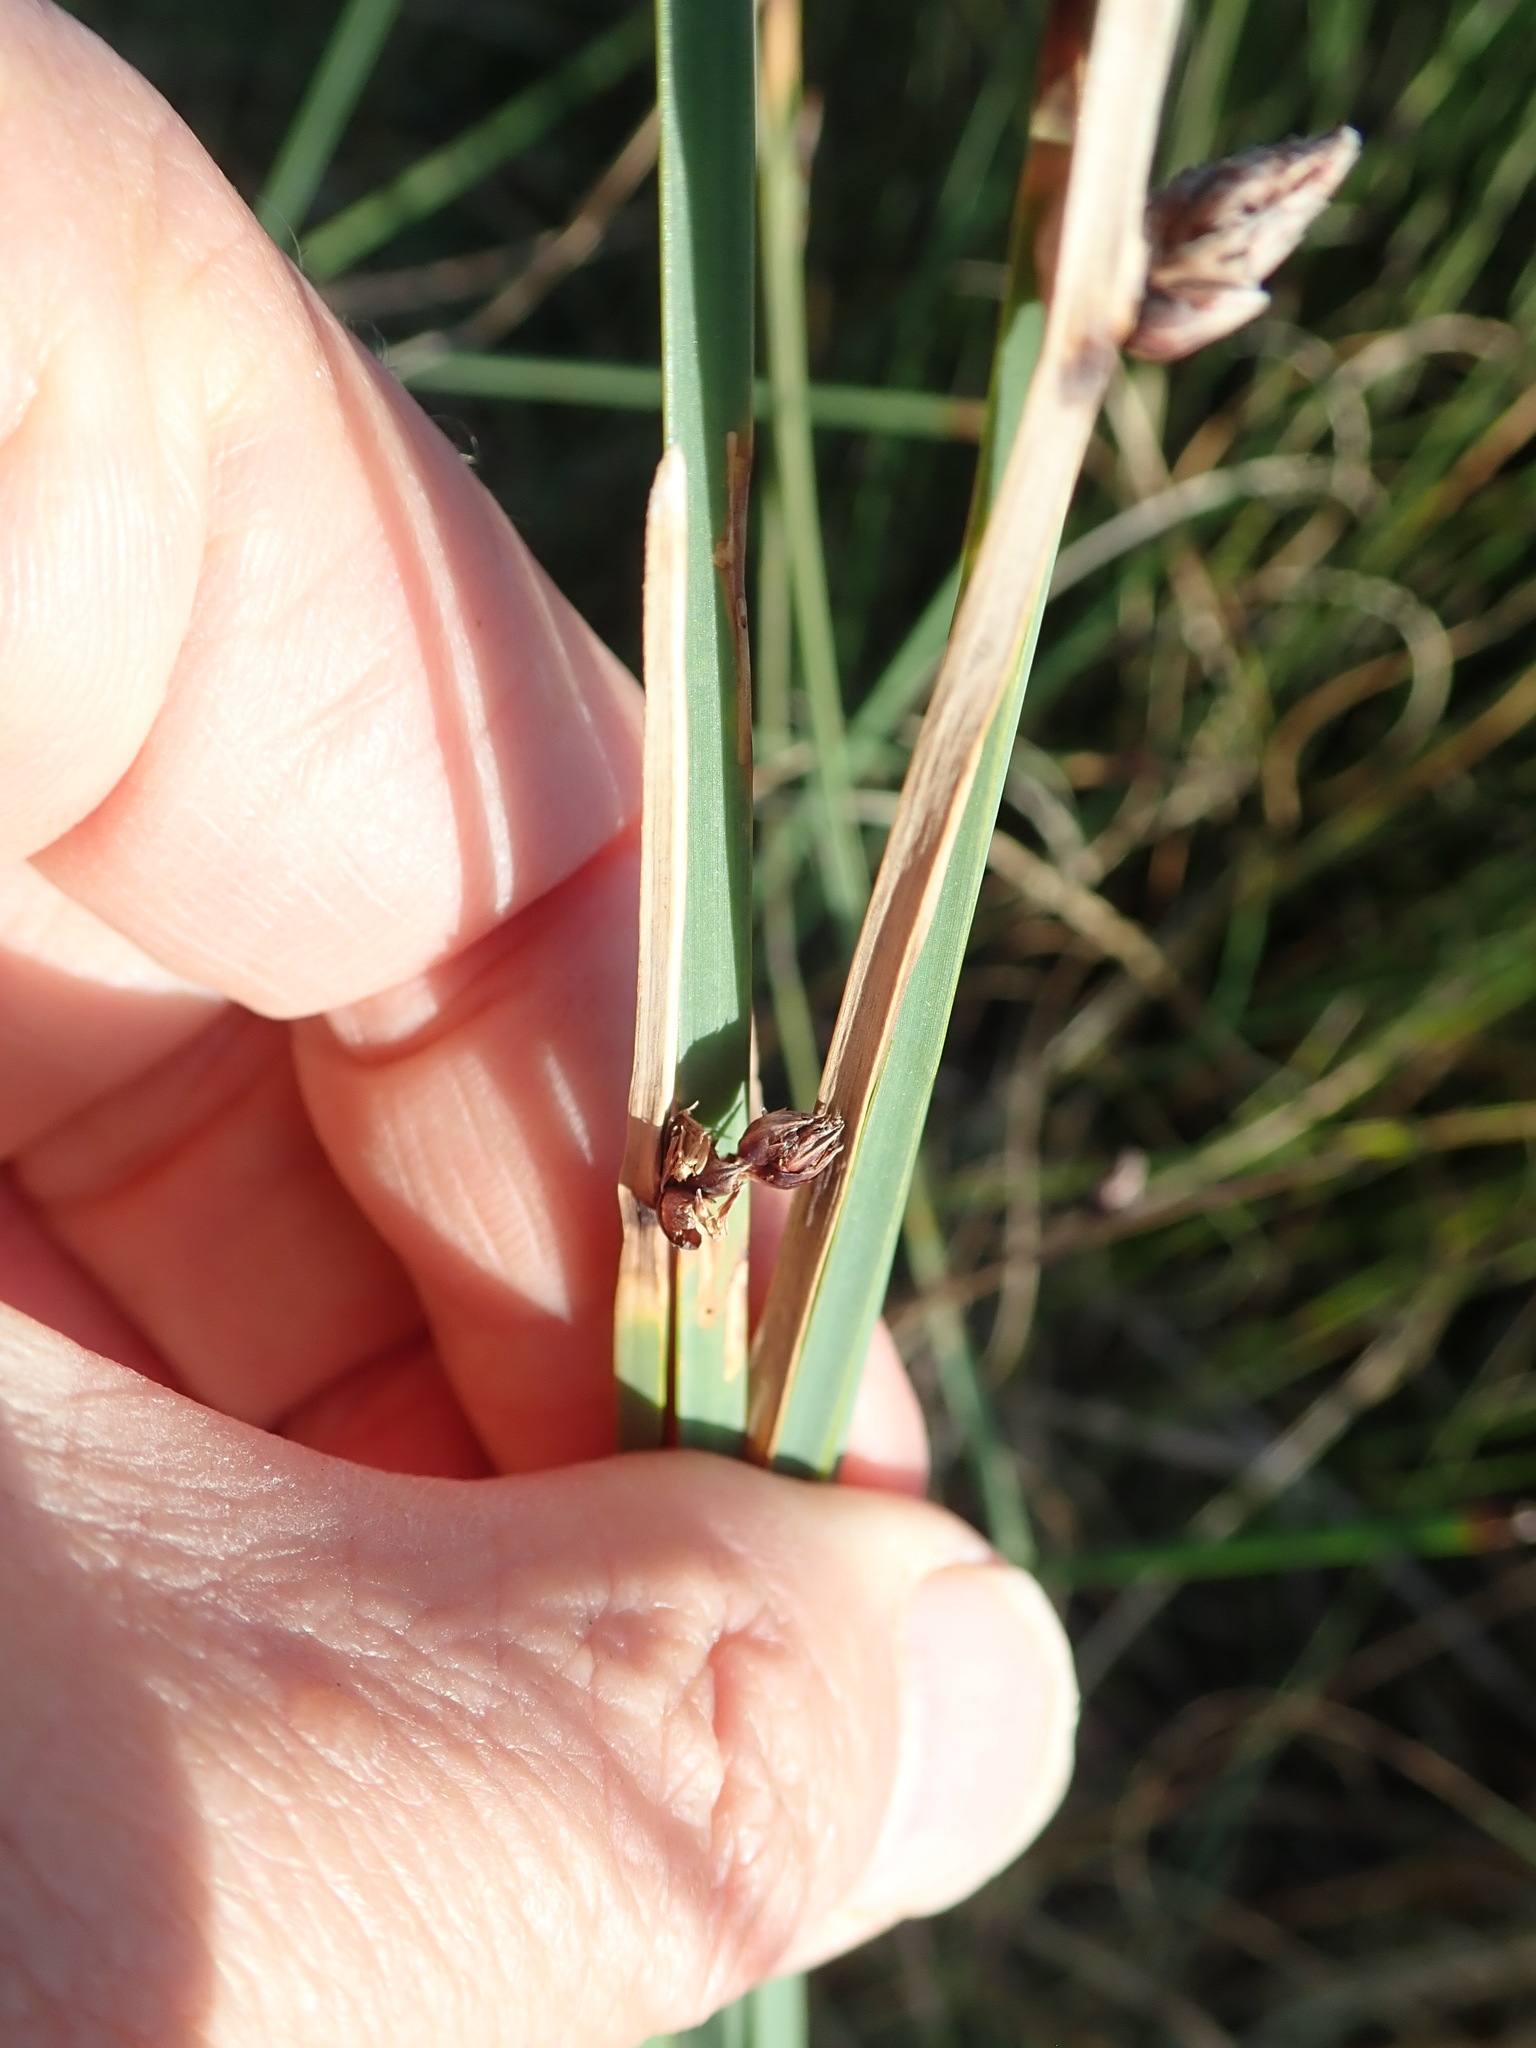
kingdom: Plantae
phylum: Tracheophyta
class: Liliopsida
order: Poales
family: Cyperaceae
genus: Schoenoplectus
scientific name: Schoenoplectus pungens
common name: Sharp club-rush
